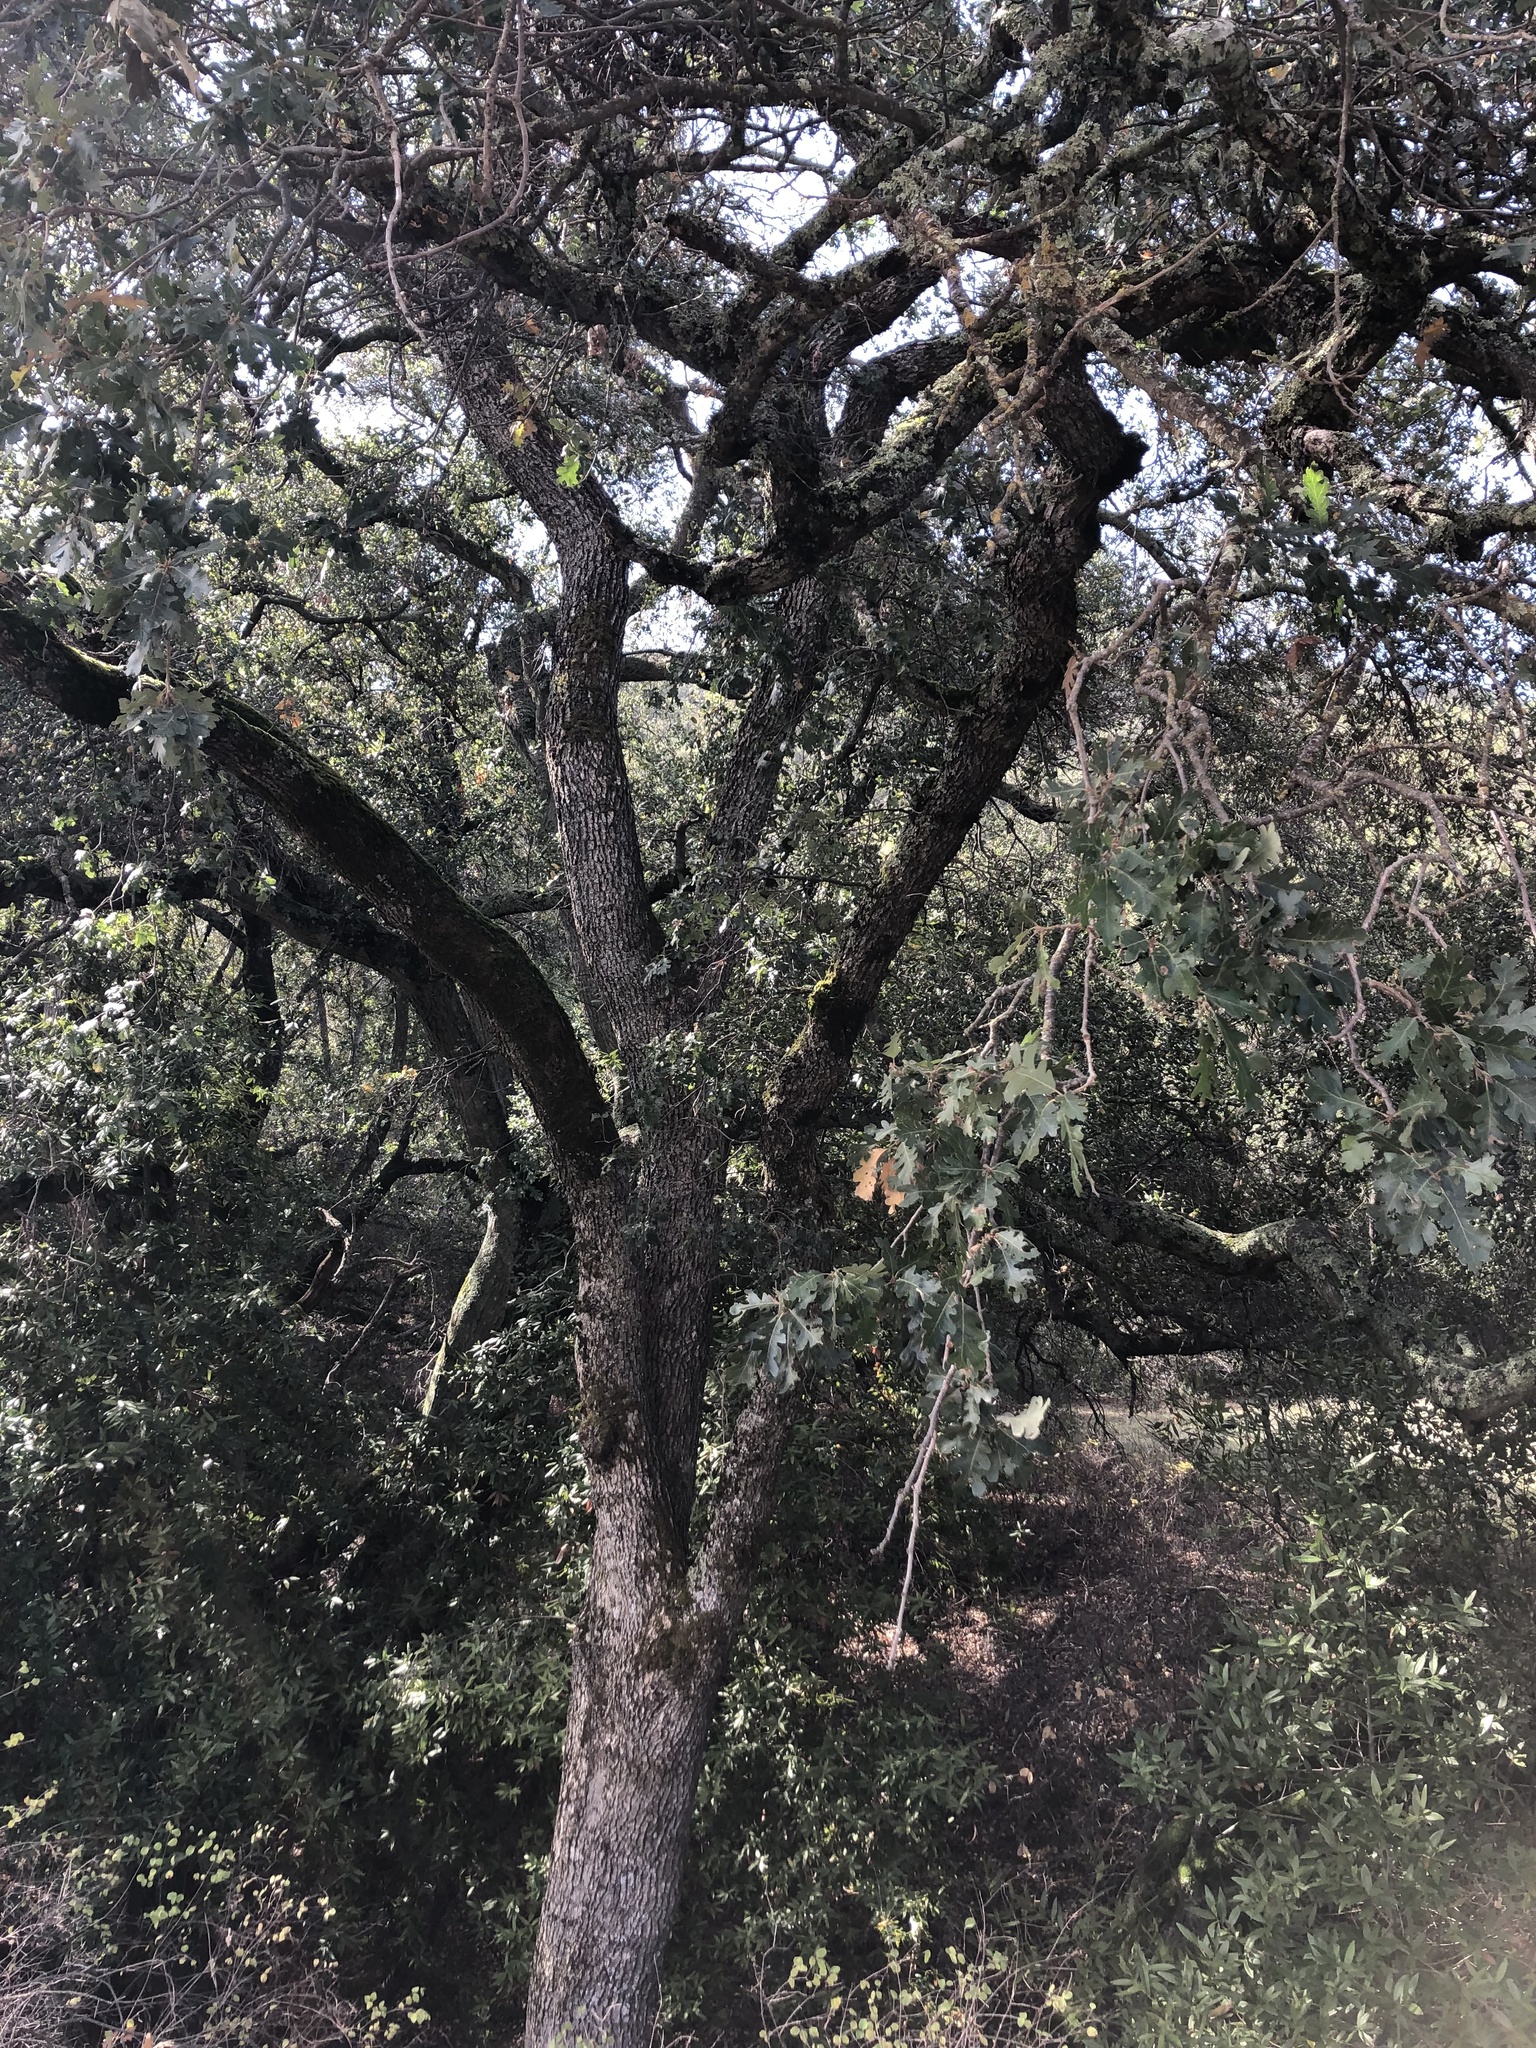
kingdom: Plantae
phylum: Tracheophyta
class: Magnoliopsida
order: Fagales
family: Fagaceae
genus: Quercus
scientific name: Quercus lobata
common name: Valley oak
